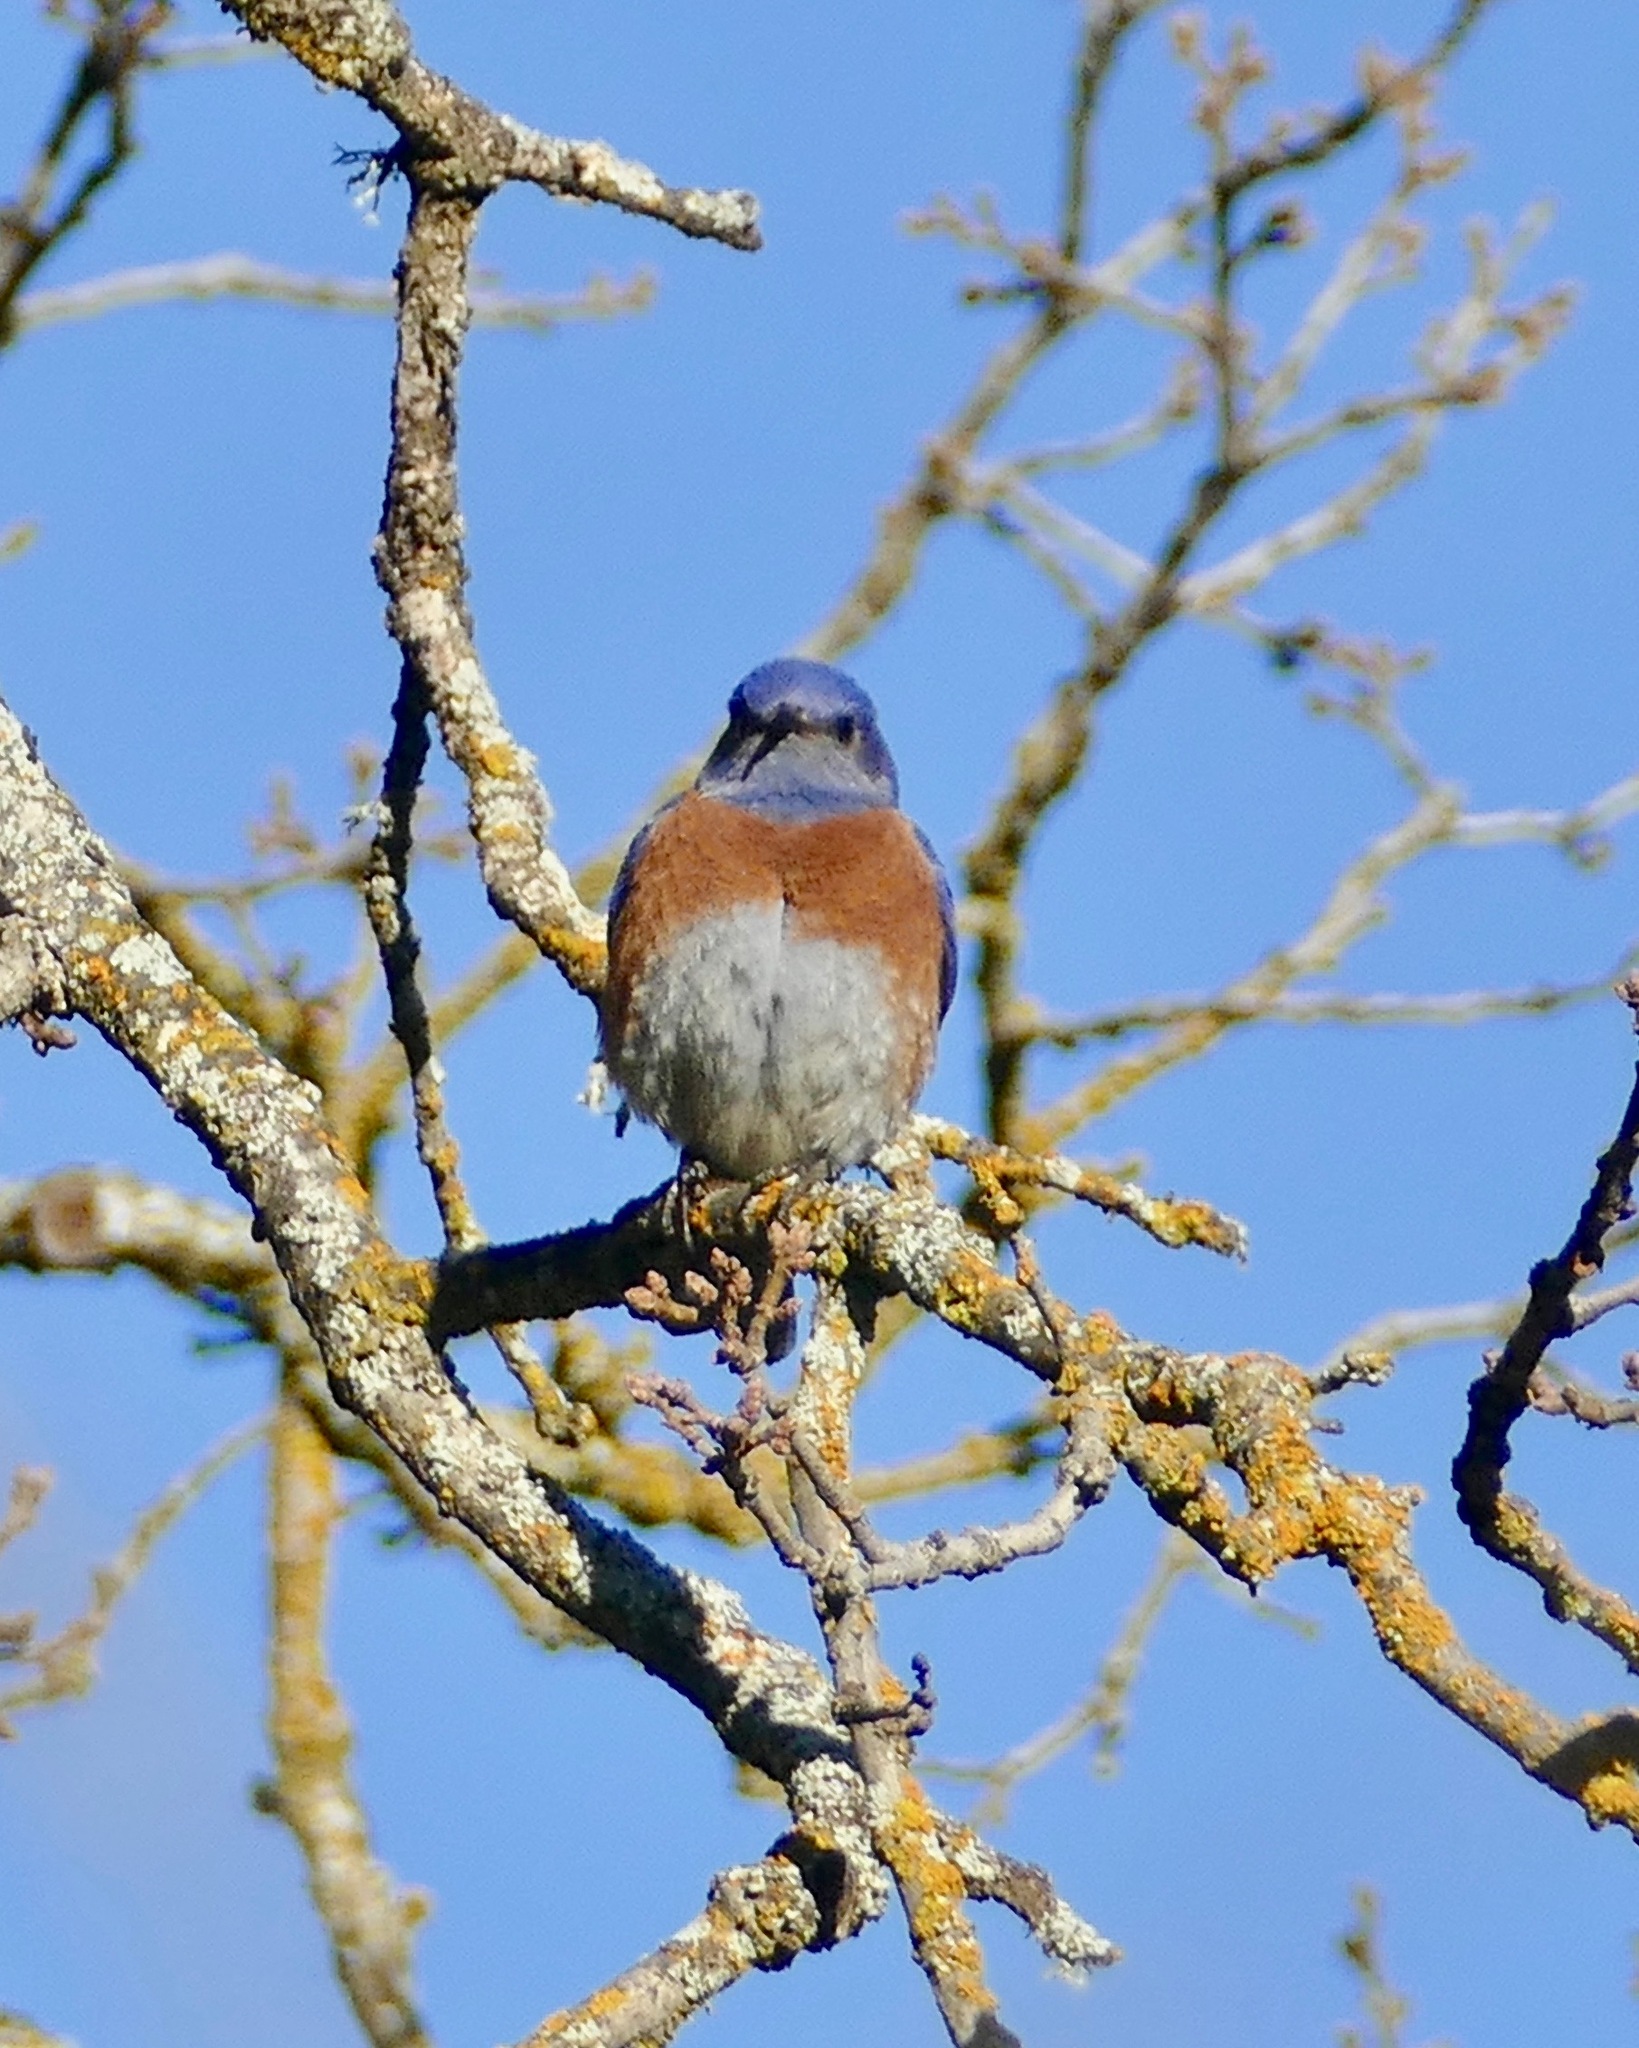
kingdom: Animalia
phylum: Chordata
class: Aves
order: Passeriformes
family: Turdidae
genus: Sialia
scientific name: Sialia mexicana
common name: Western bluebird
